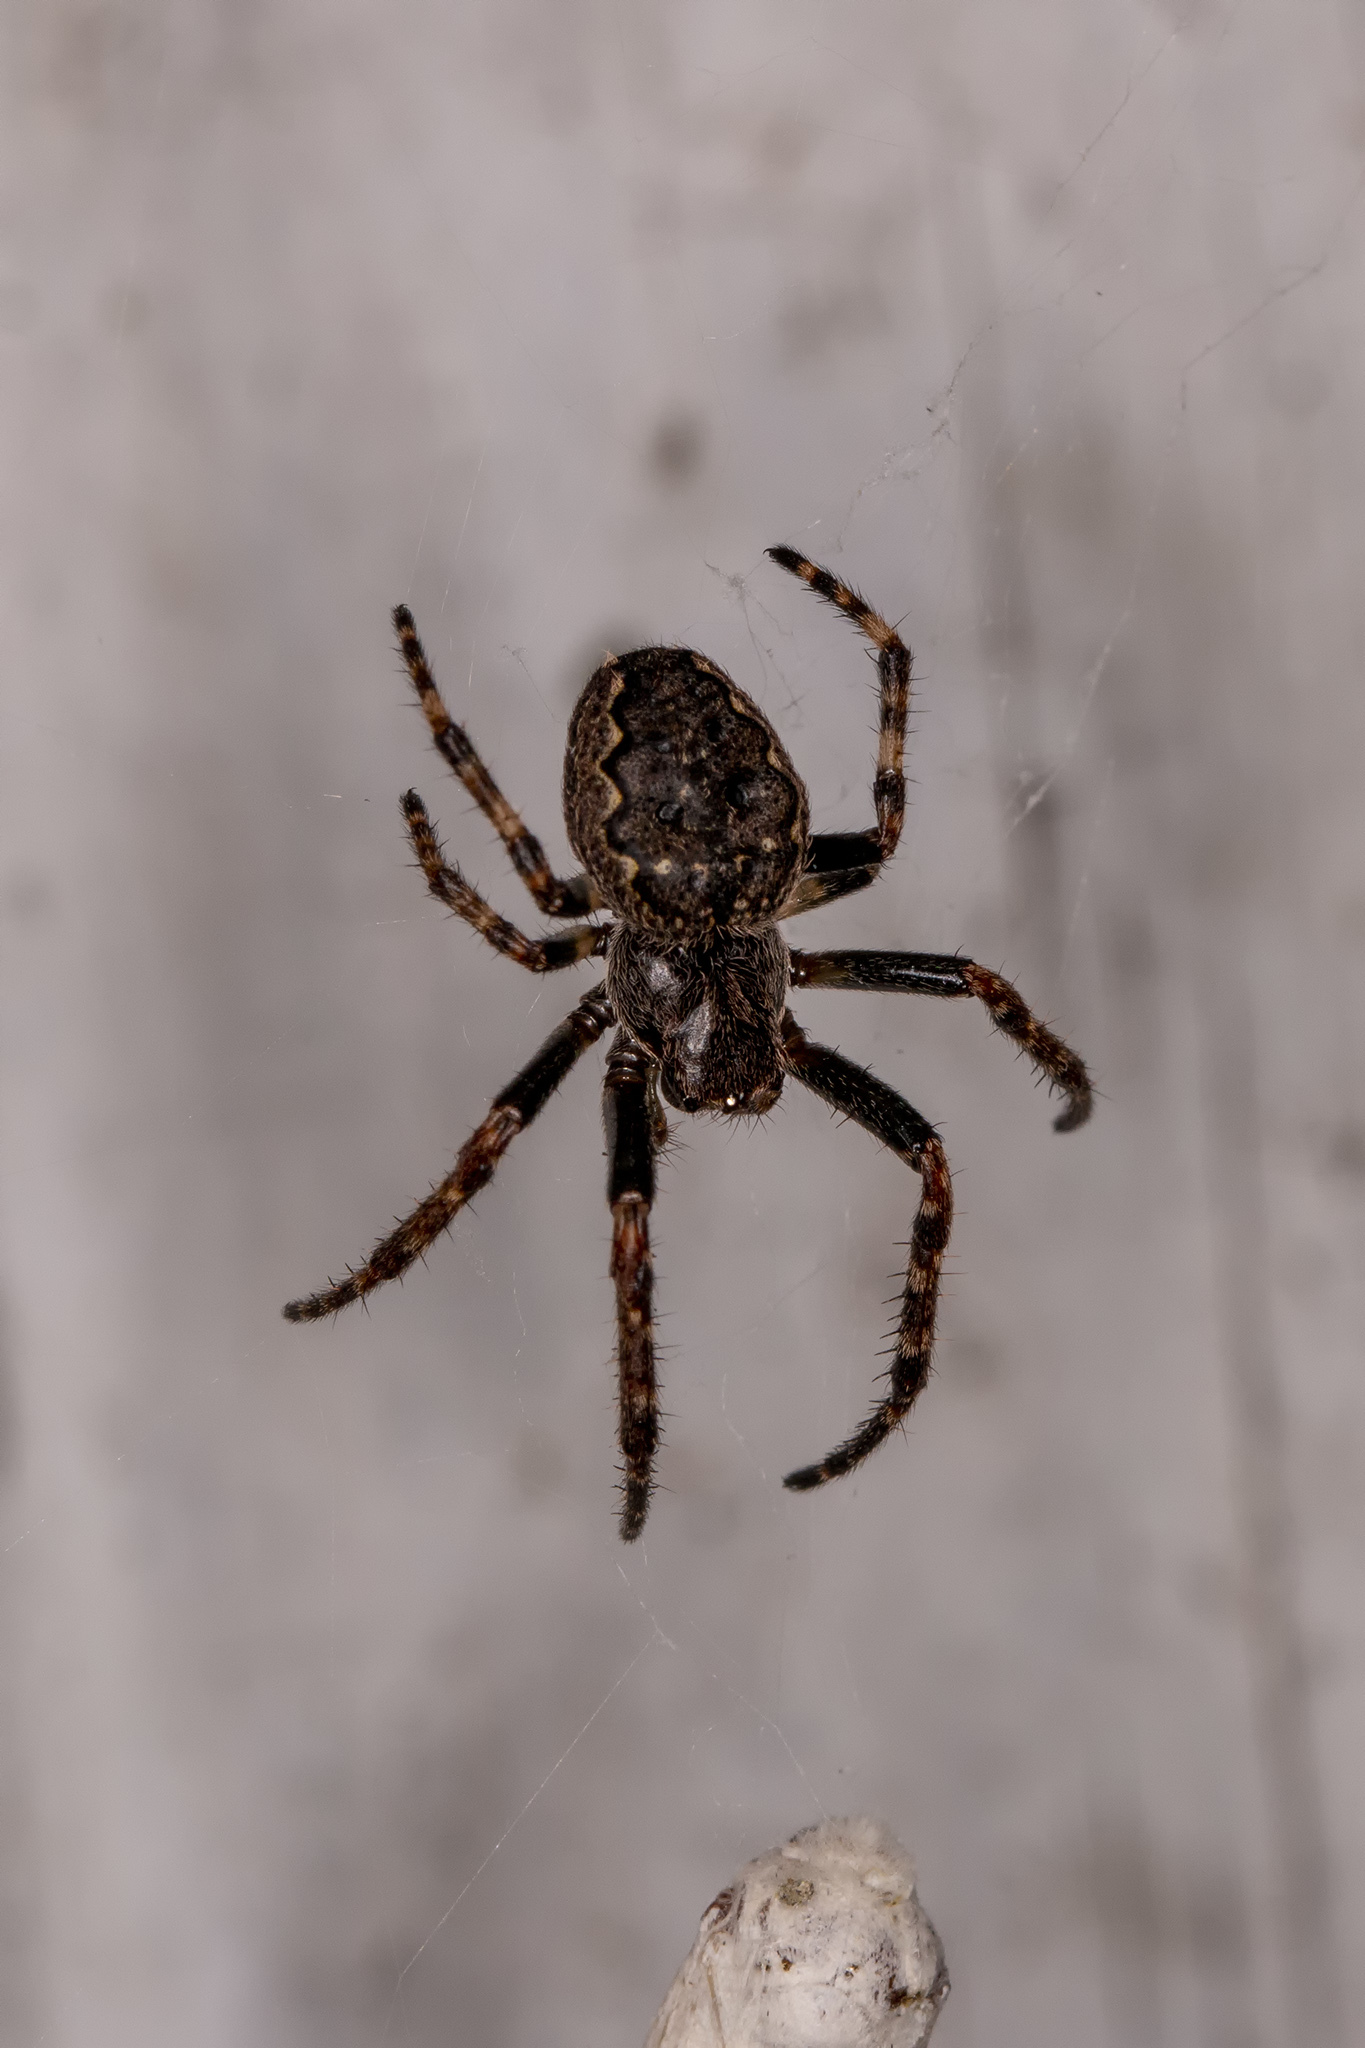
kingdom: Animalia
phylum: Arthropoda
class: Arachnida
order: Araneae
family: Araneidae
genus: Nuctenea
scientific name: Nuctenea umbratica
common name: Toad spider
